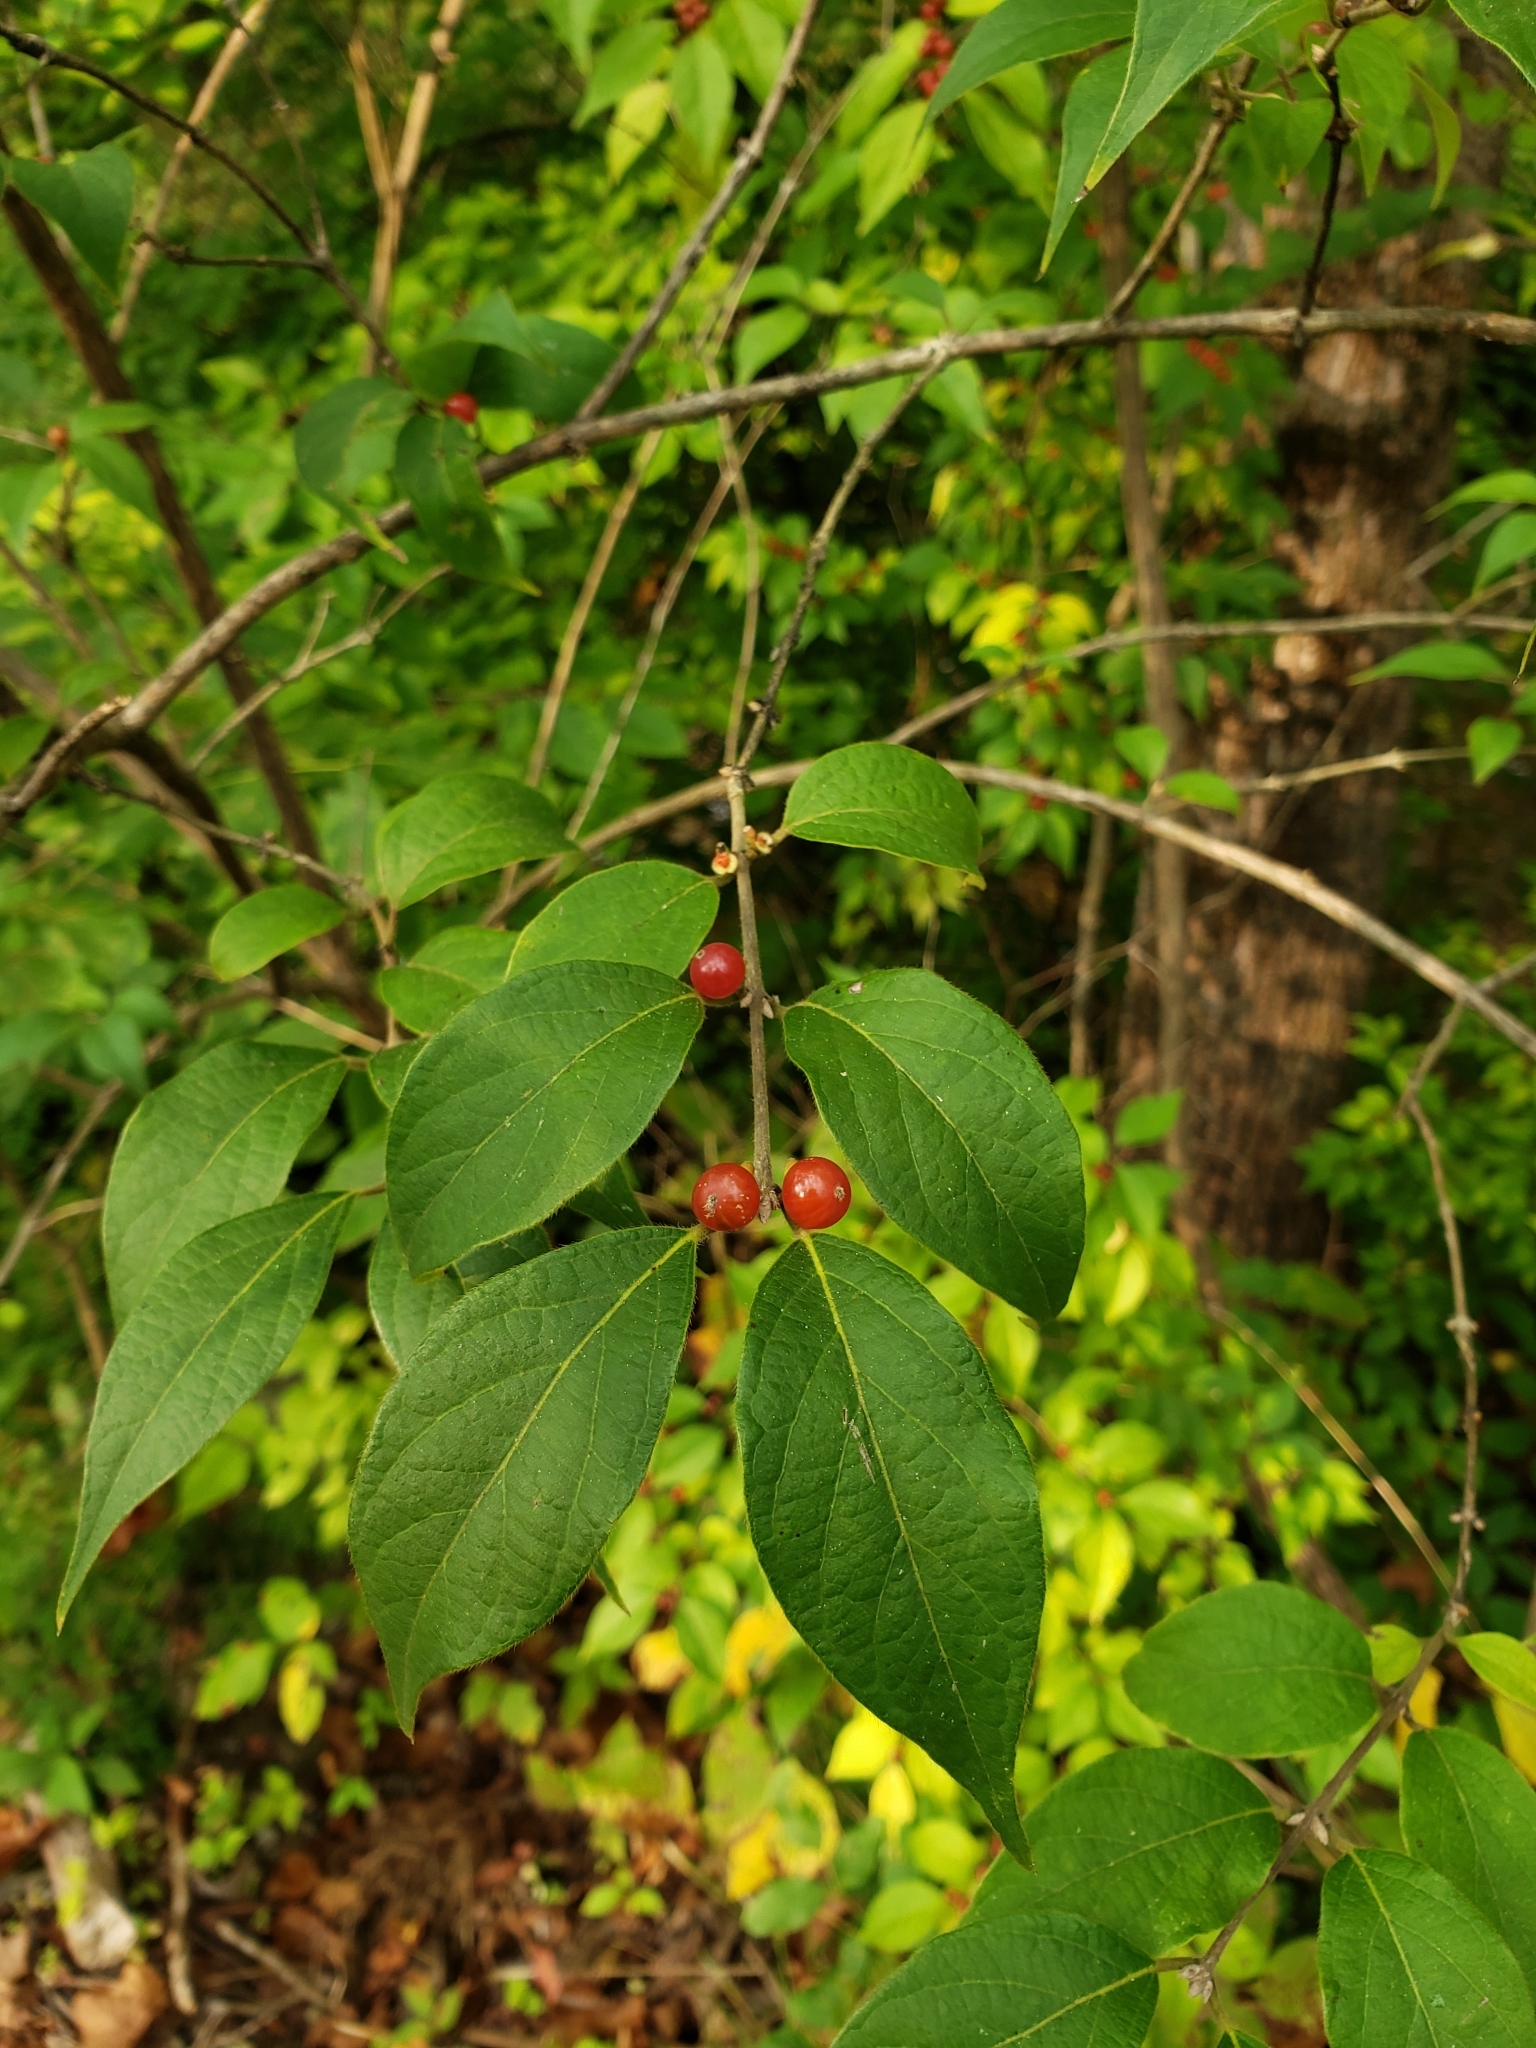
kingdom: Plantae
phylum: Tracheophyta
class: Magnoliopsida
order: Dipsacales
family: Caprifoliaceae
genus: Lonicera
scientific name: Lonicera maackii
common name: Amur honeysuckle
